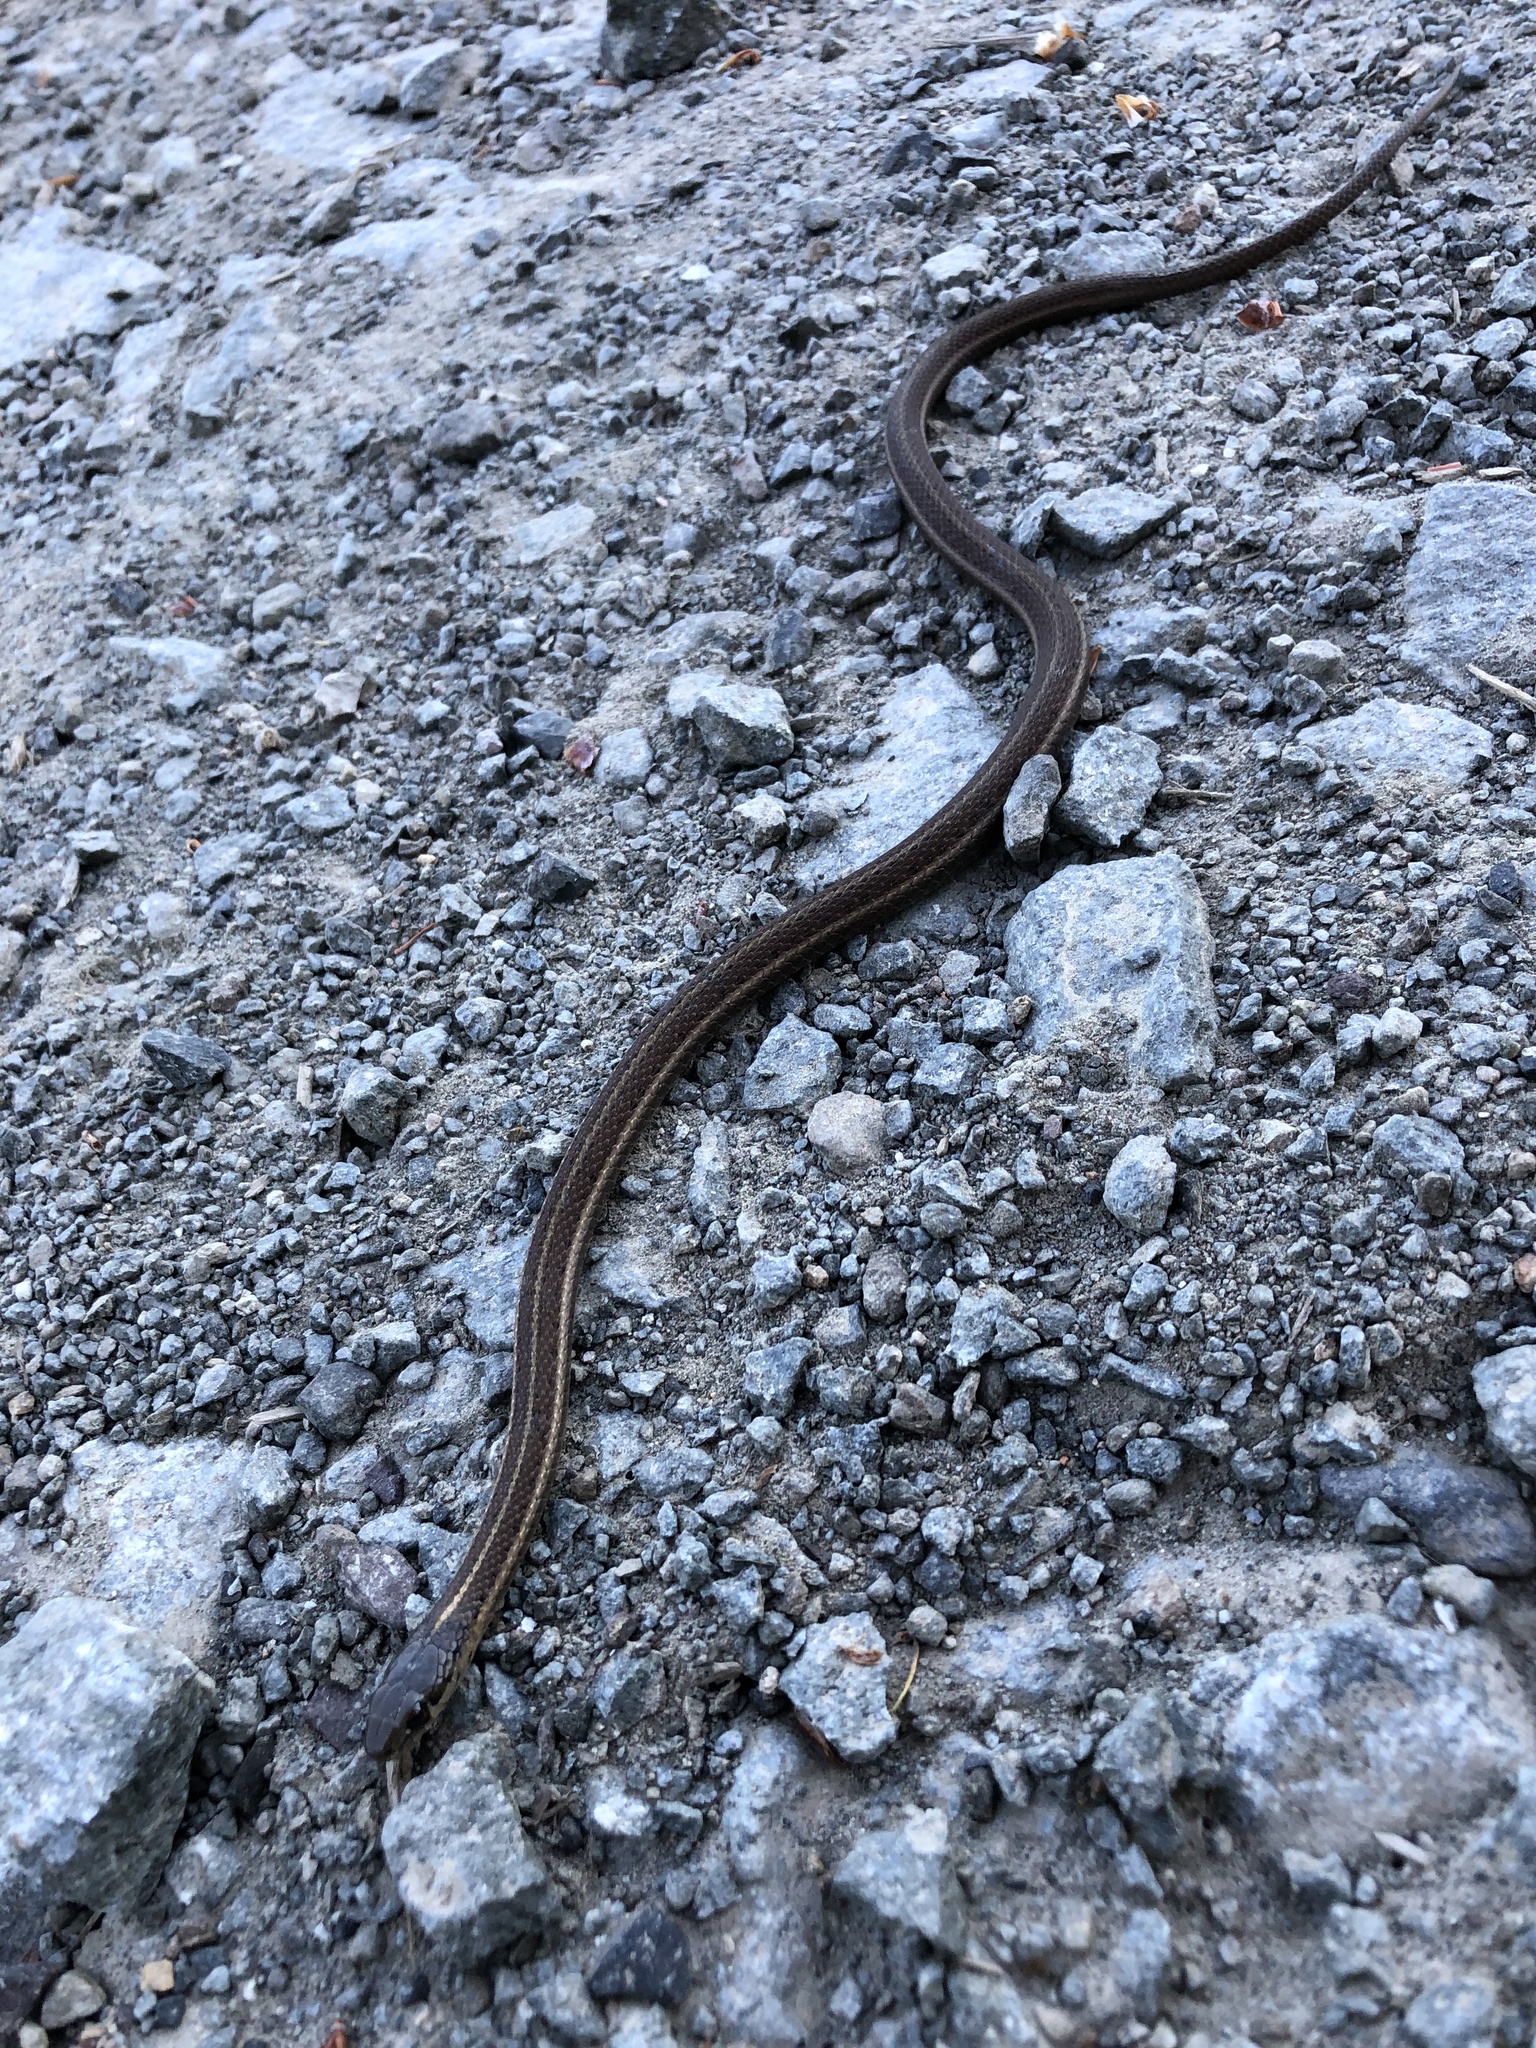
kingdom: Animalia
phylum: Chordata
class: Squamata
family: Colubridae
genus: Thamnophis
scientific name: Thamnophis ordinoides
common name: Northwestern garter snake
